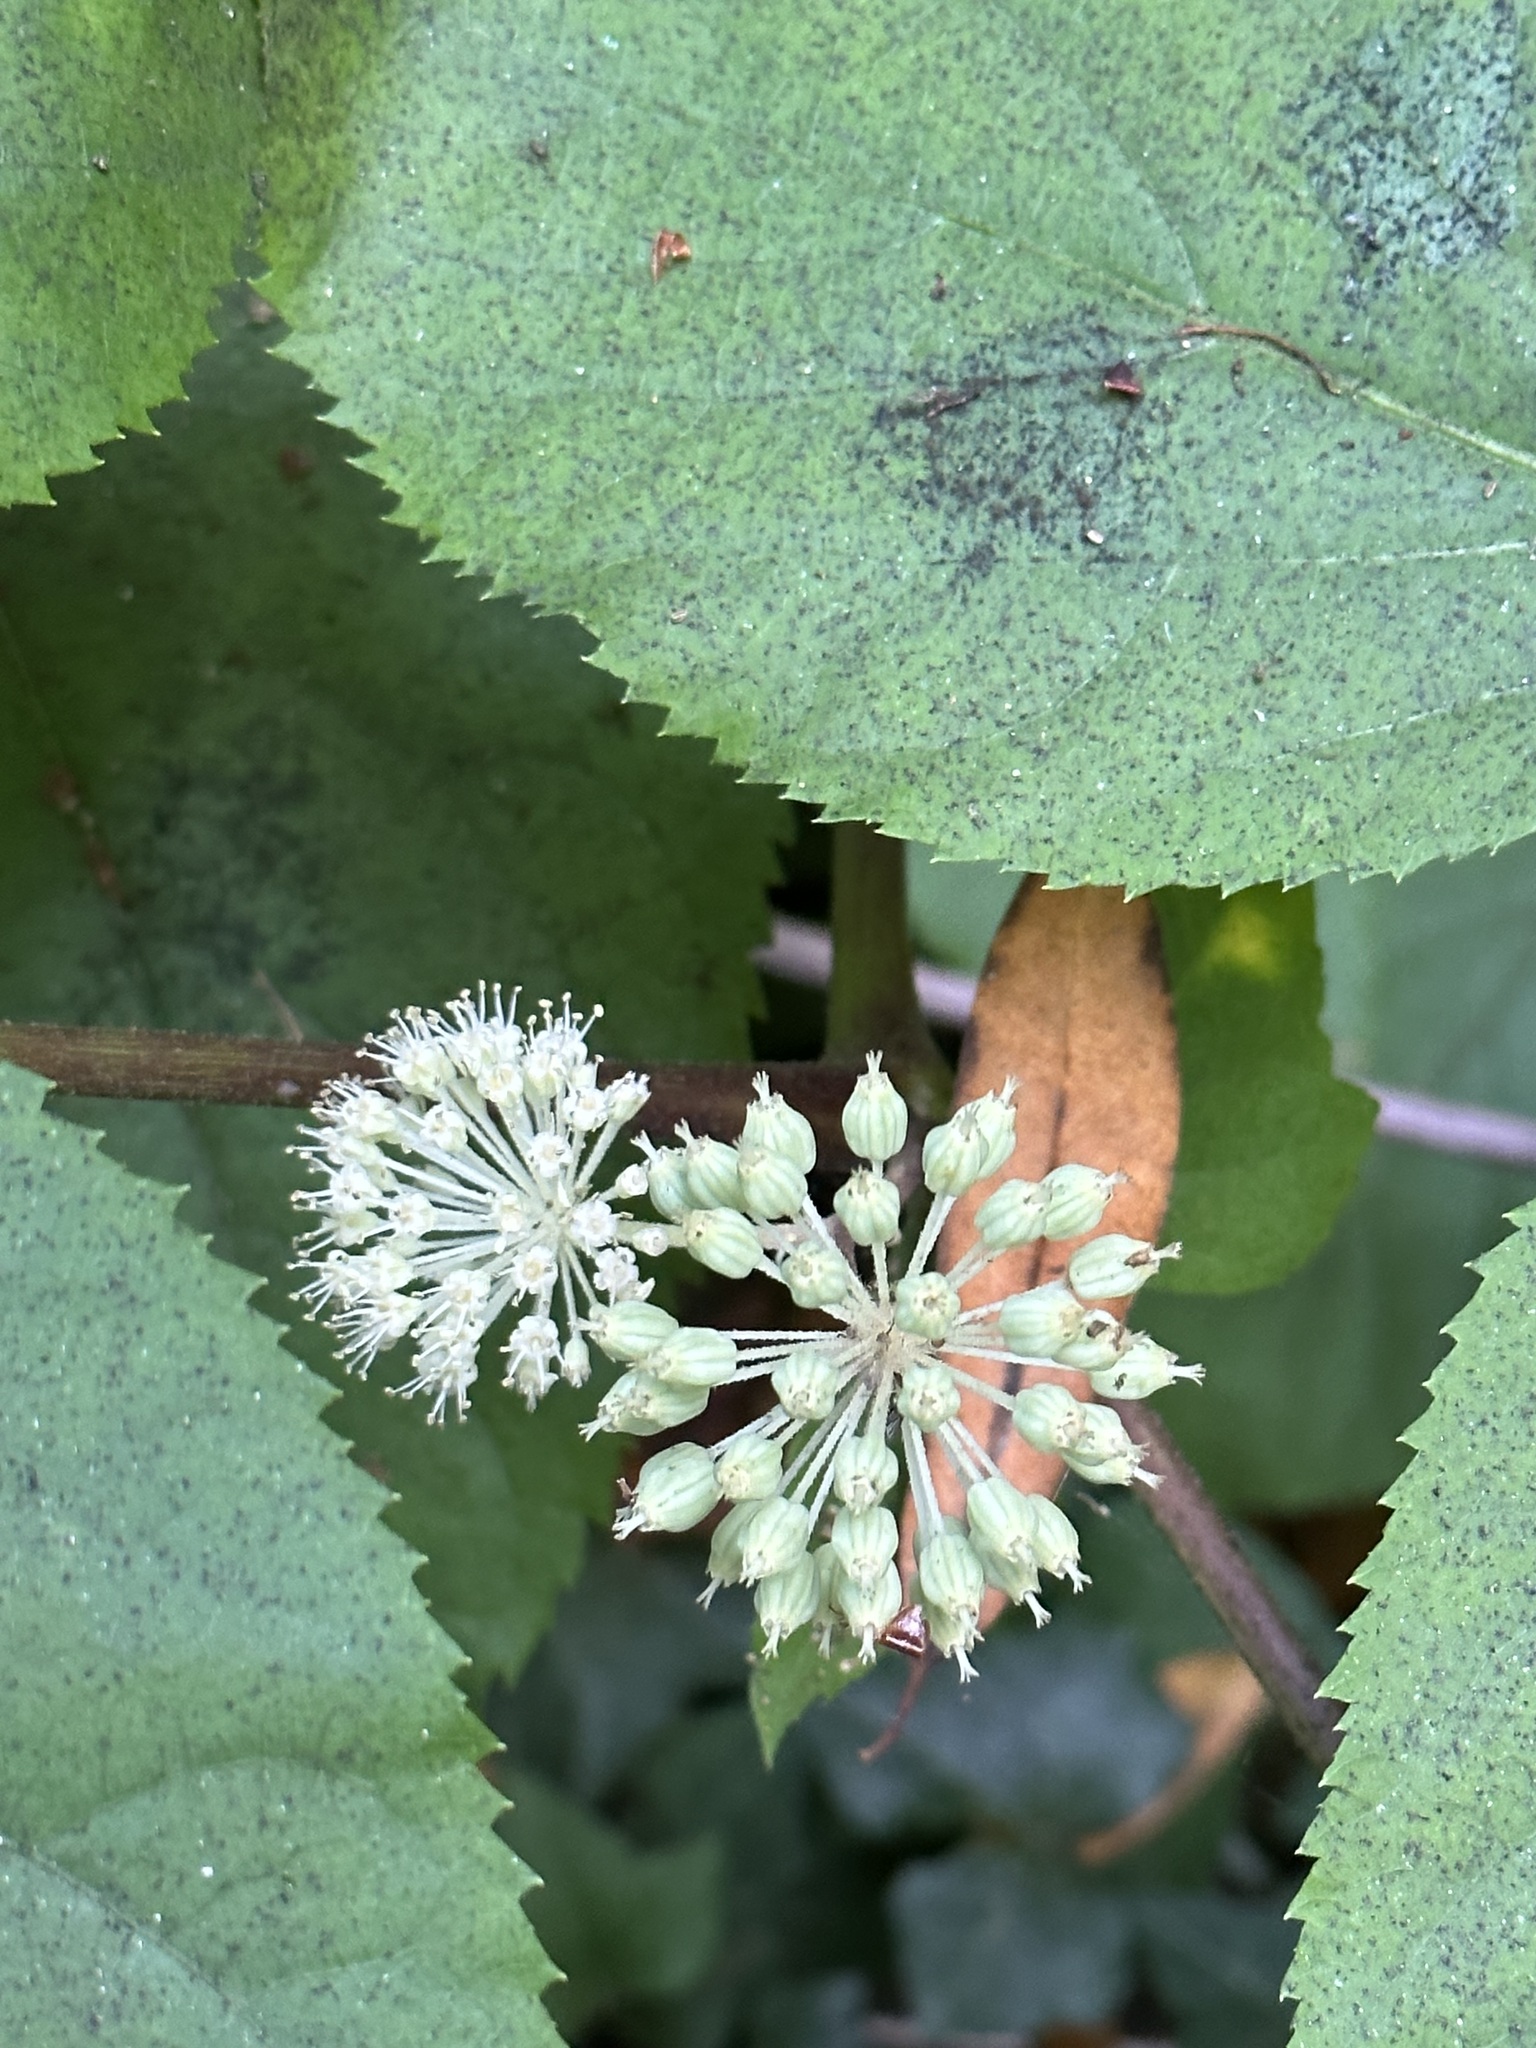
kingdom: Plantae
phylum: Tracheophyta
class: Magnoliopsida
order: Apiales
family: Araliaceae
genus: Aralia
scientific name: Aralia californica
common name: California-ginseng
